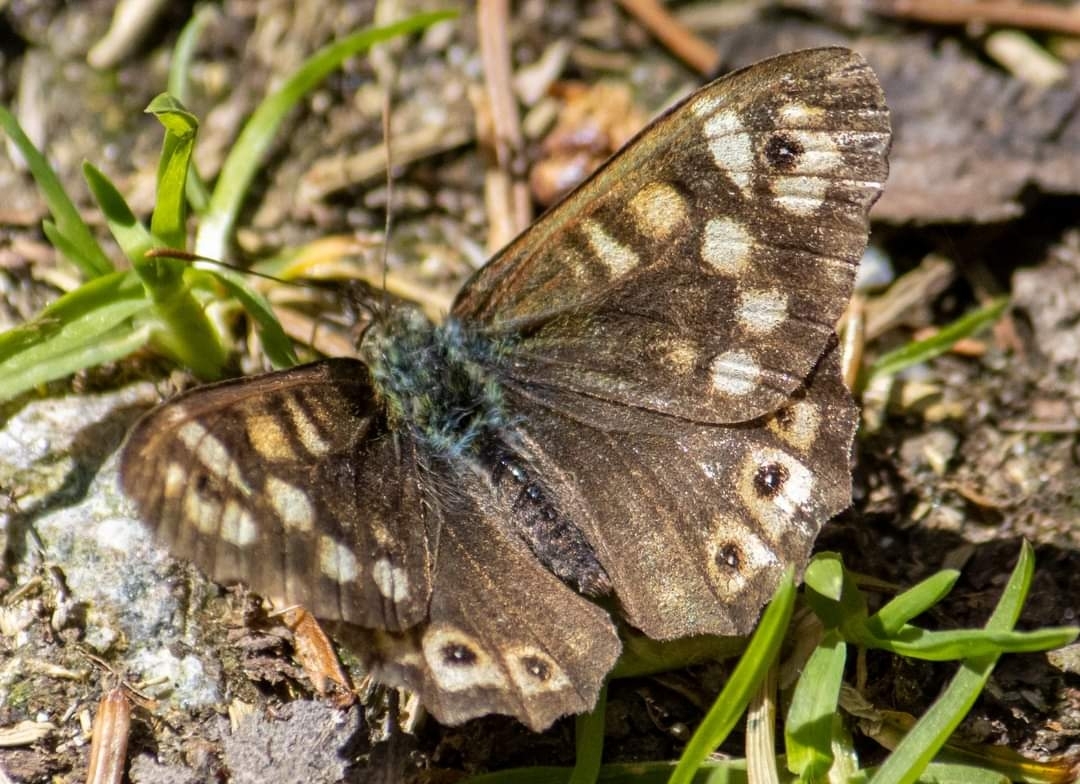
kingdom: Animalia
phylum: Arthropoda
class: Insecta
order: Lepidoptera
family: Nymphalidae
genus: Pararge
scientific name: Pararge aegeria
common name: Speckled wood
